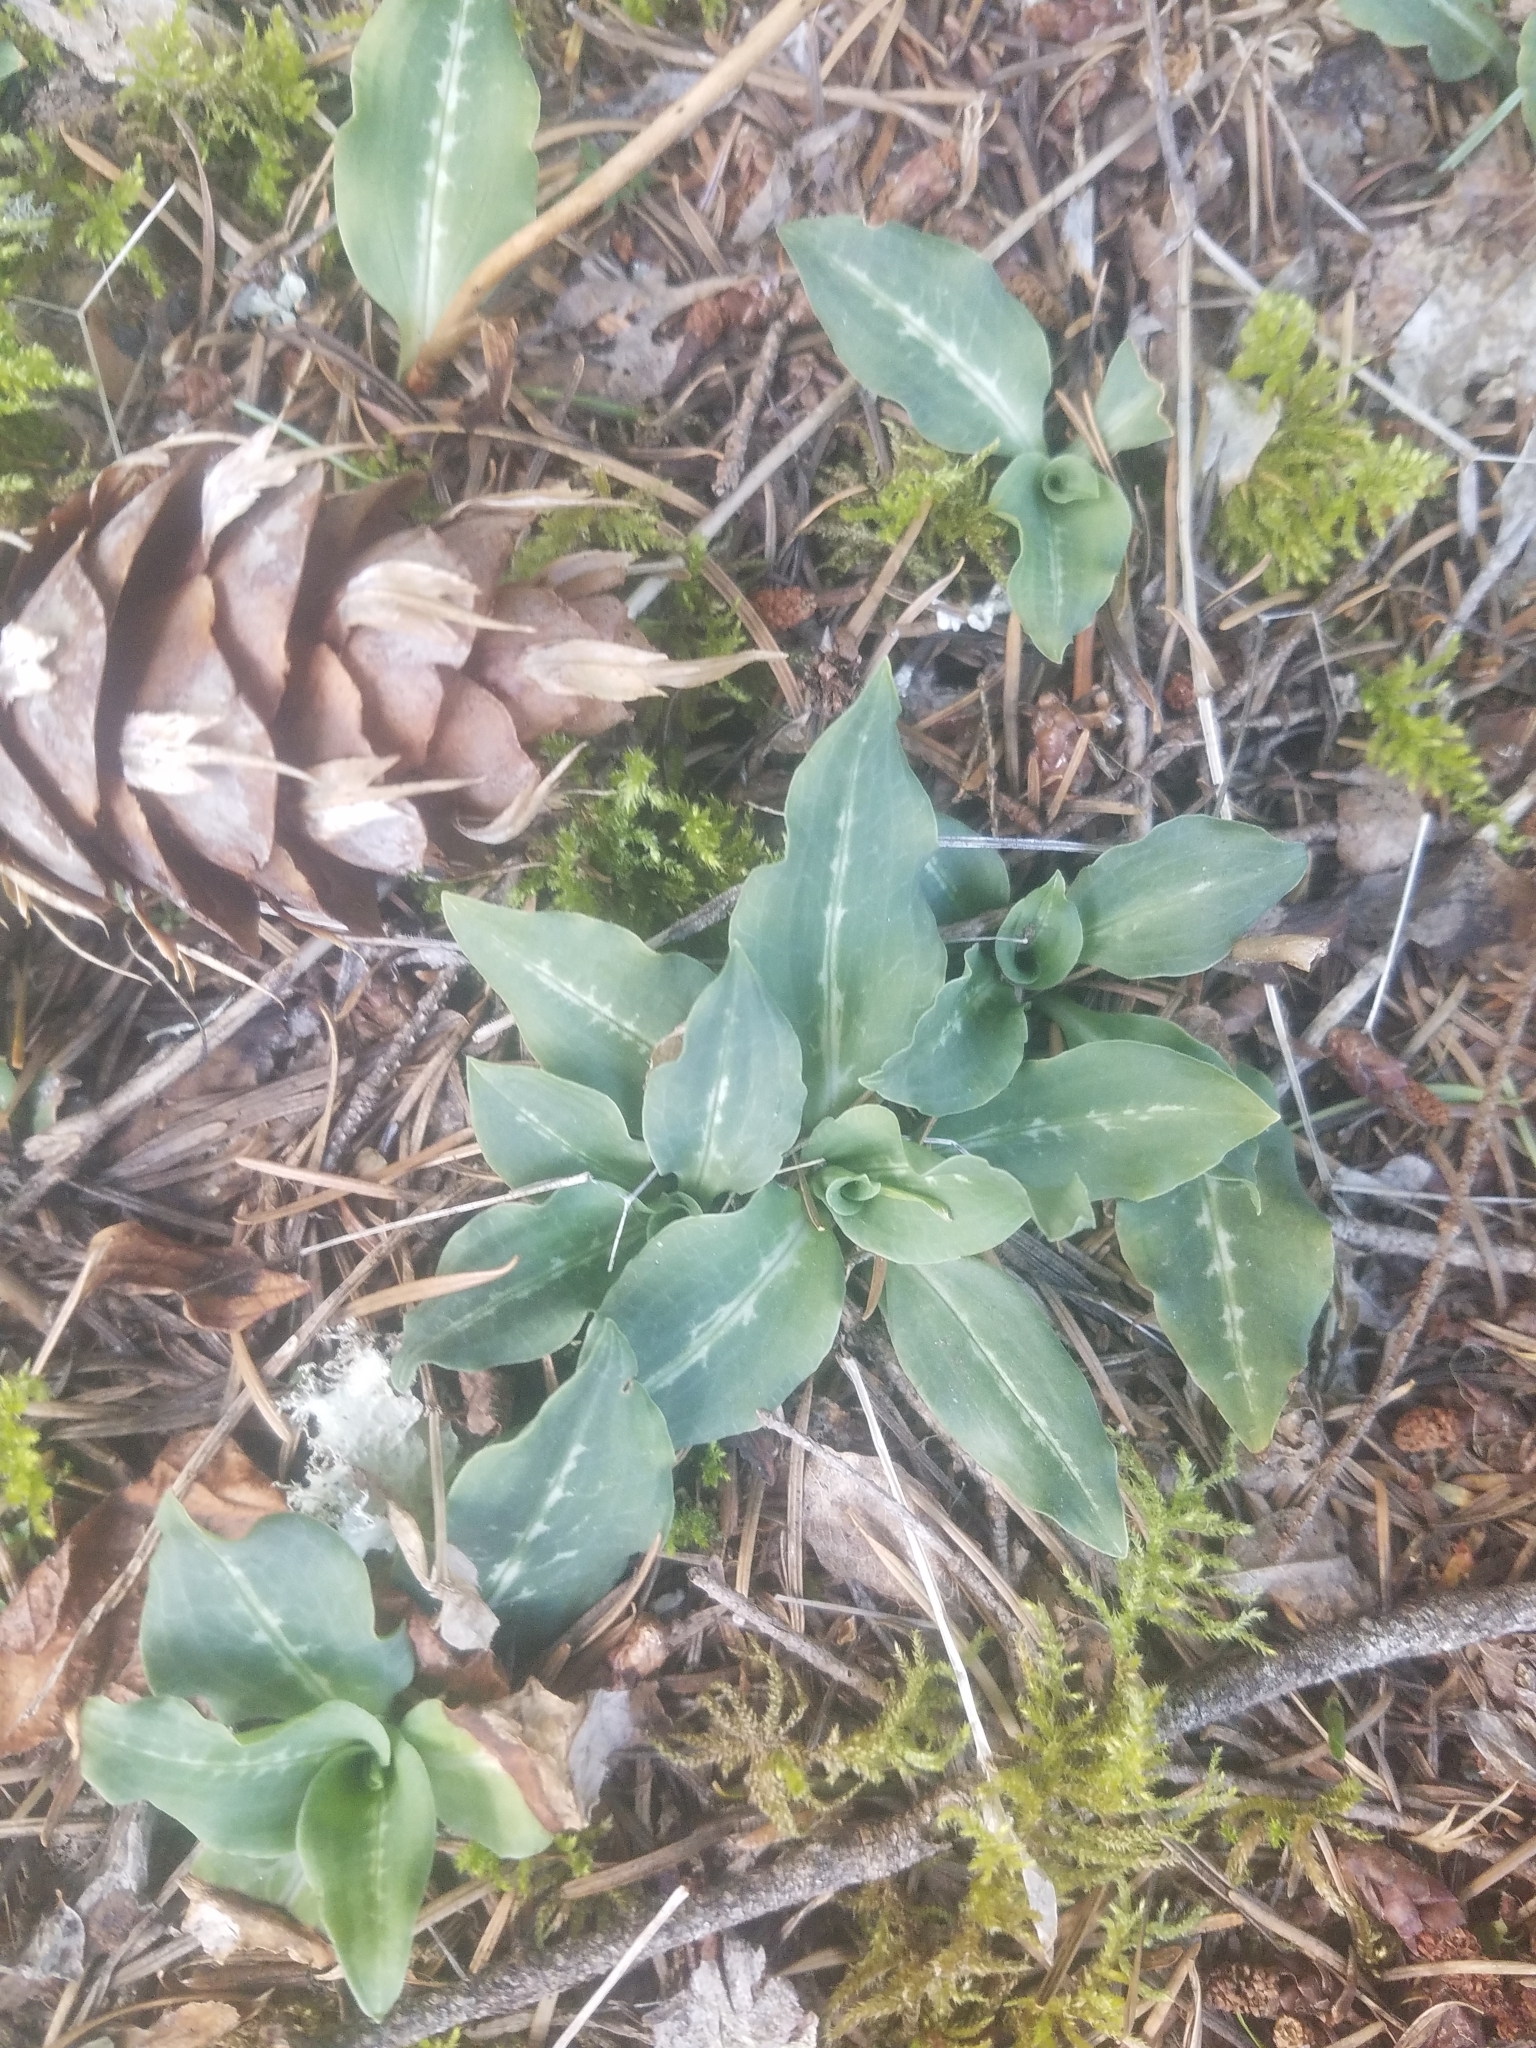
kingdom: Plantae
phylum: Tracheophyta
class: Liliopsida
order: Asparagales
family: Orchidaceae
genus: Goodyera
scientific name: Goodyera oblongifolia
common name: Giant rattlesnake-plantain
